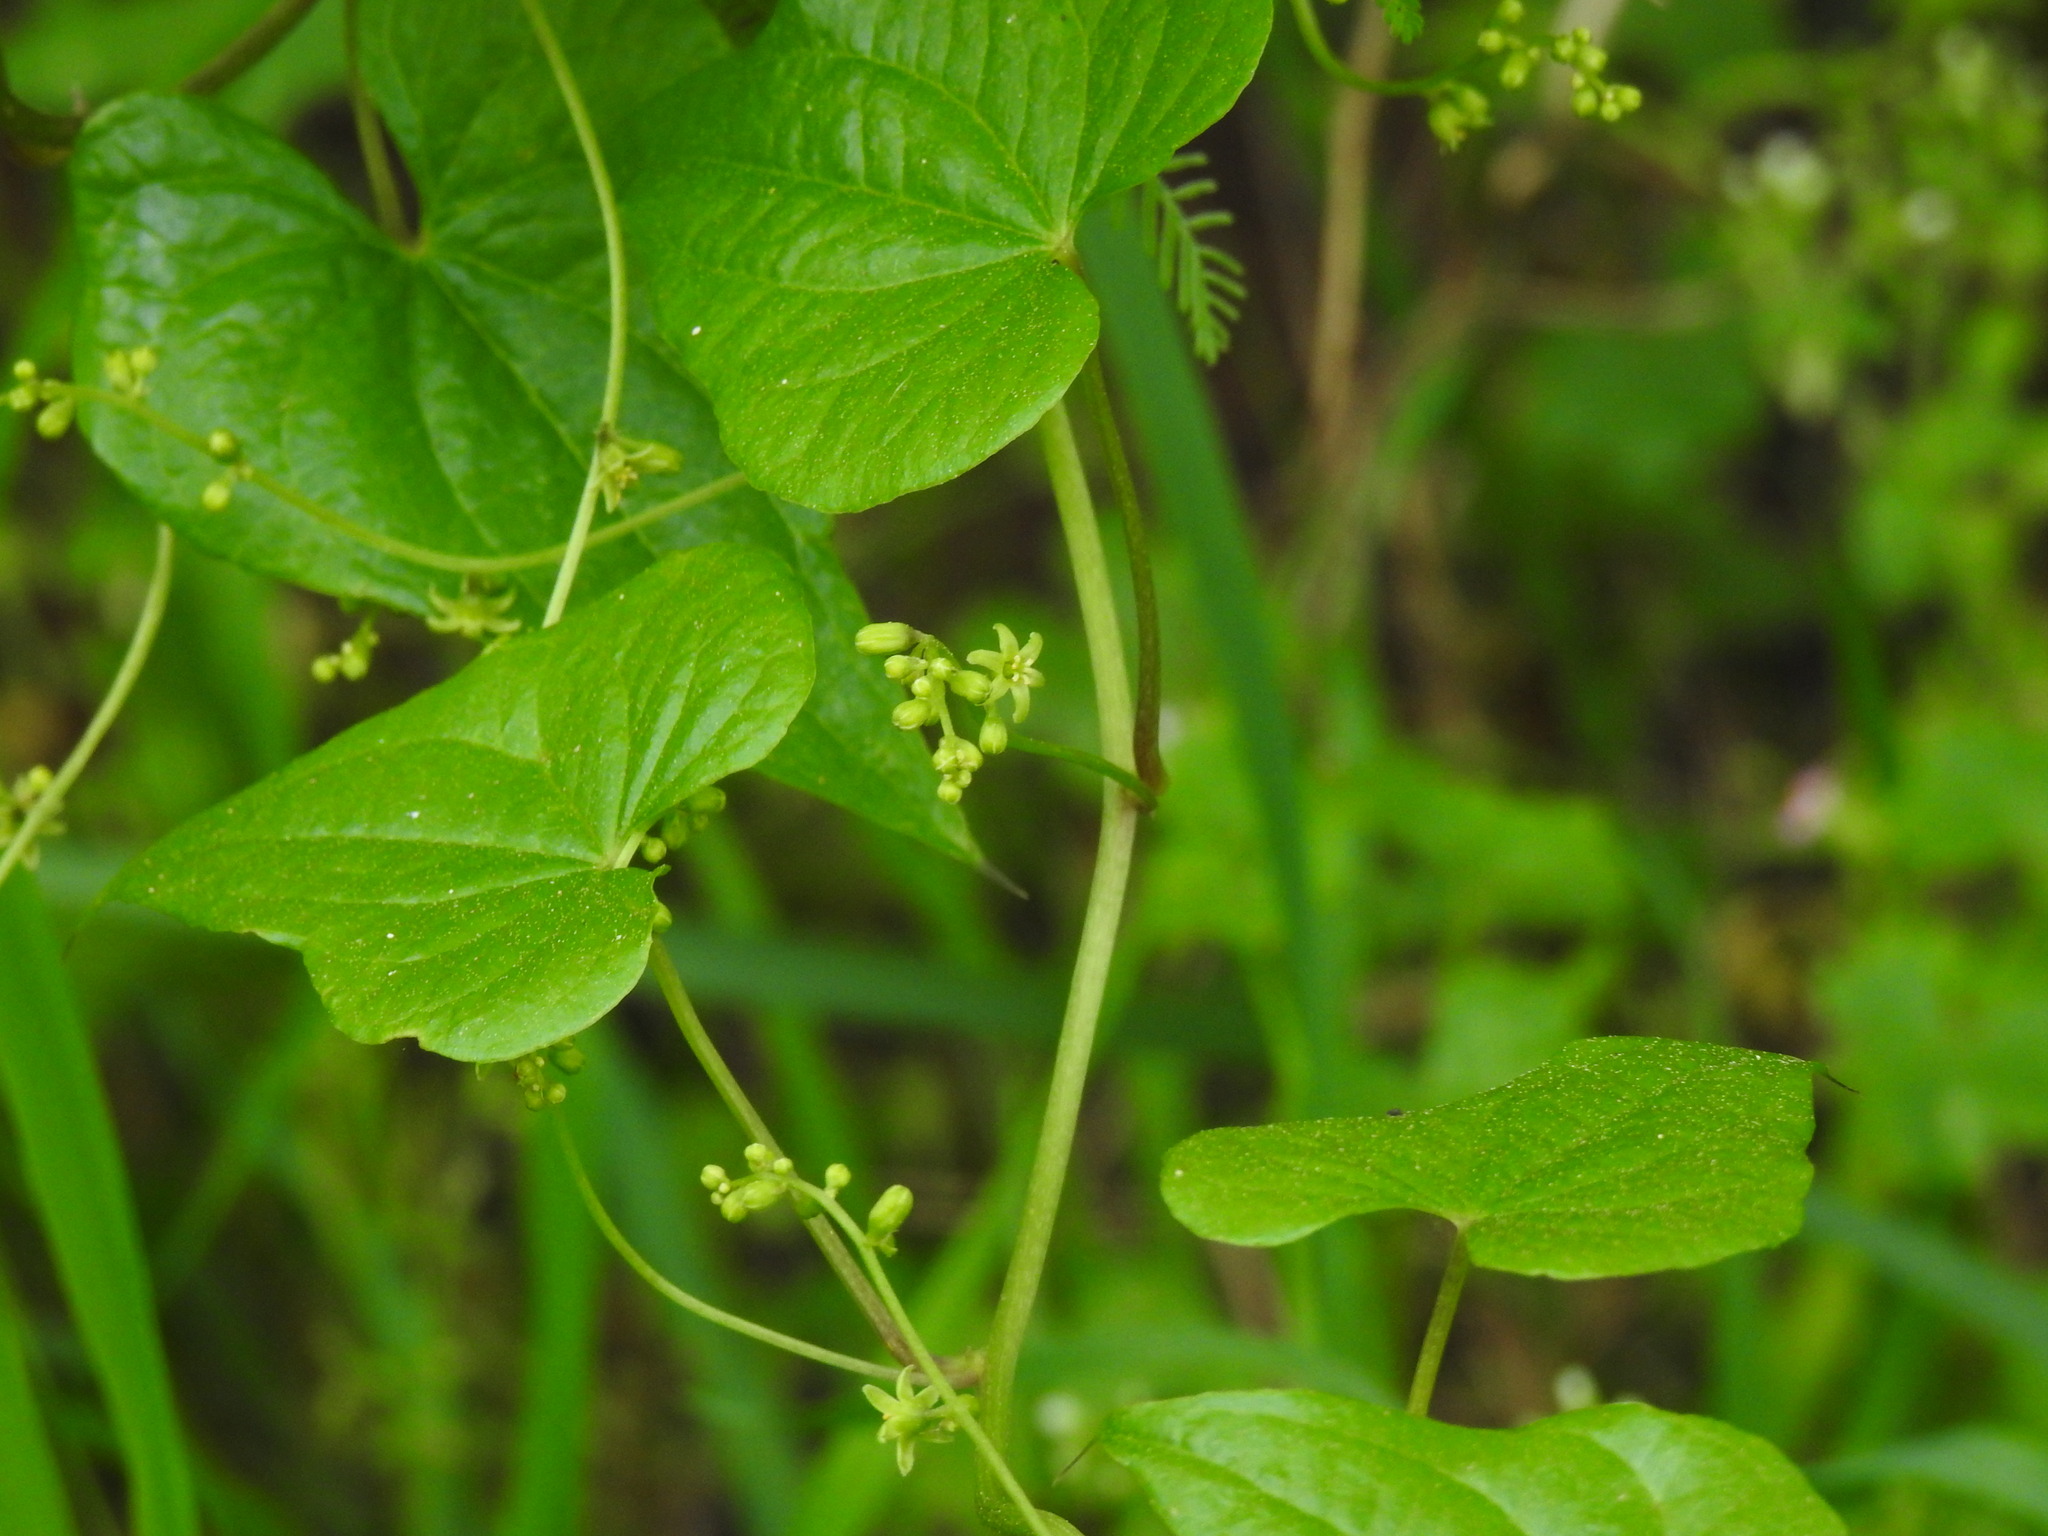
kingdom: Plantae
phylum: Tracheophyta
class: Liliopsida
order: Dioscoreales
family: Dioscoreaceae
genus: Dioscorea
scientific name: Dioscorea communis
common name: Black-bindweed
